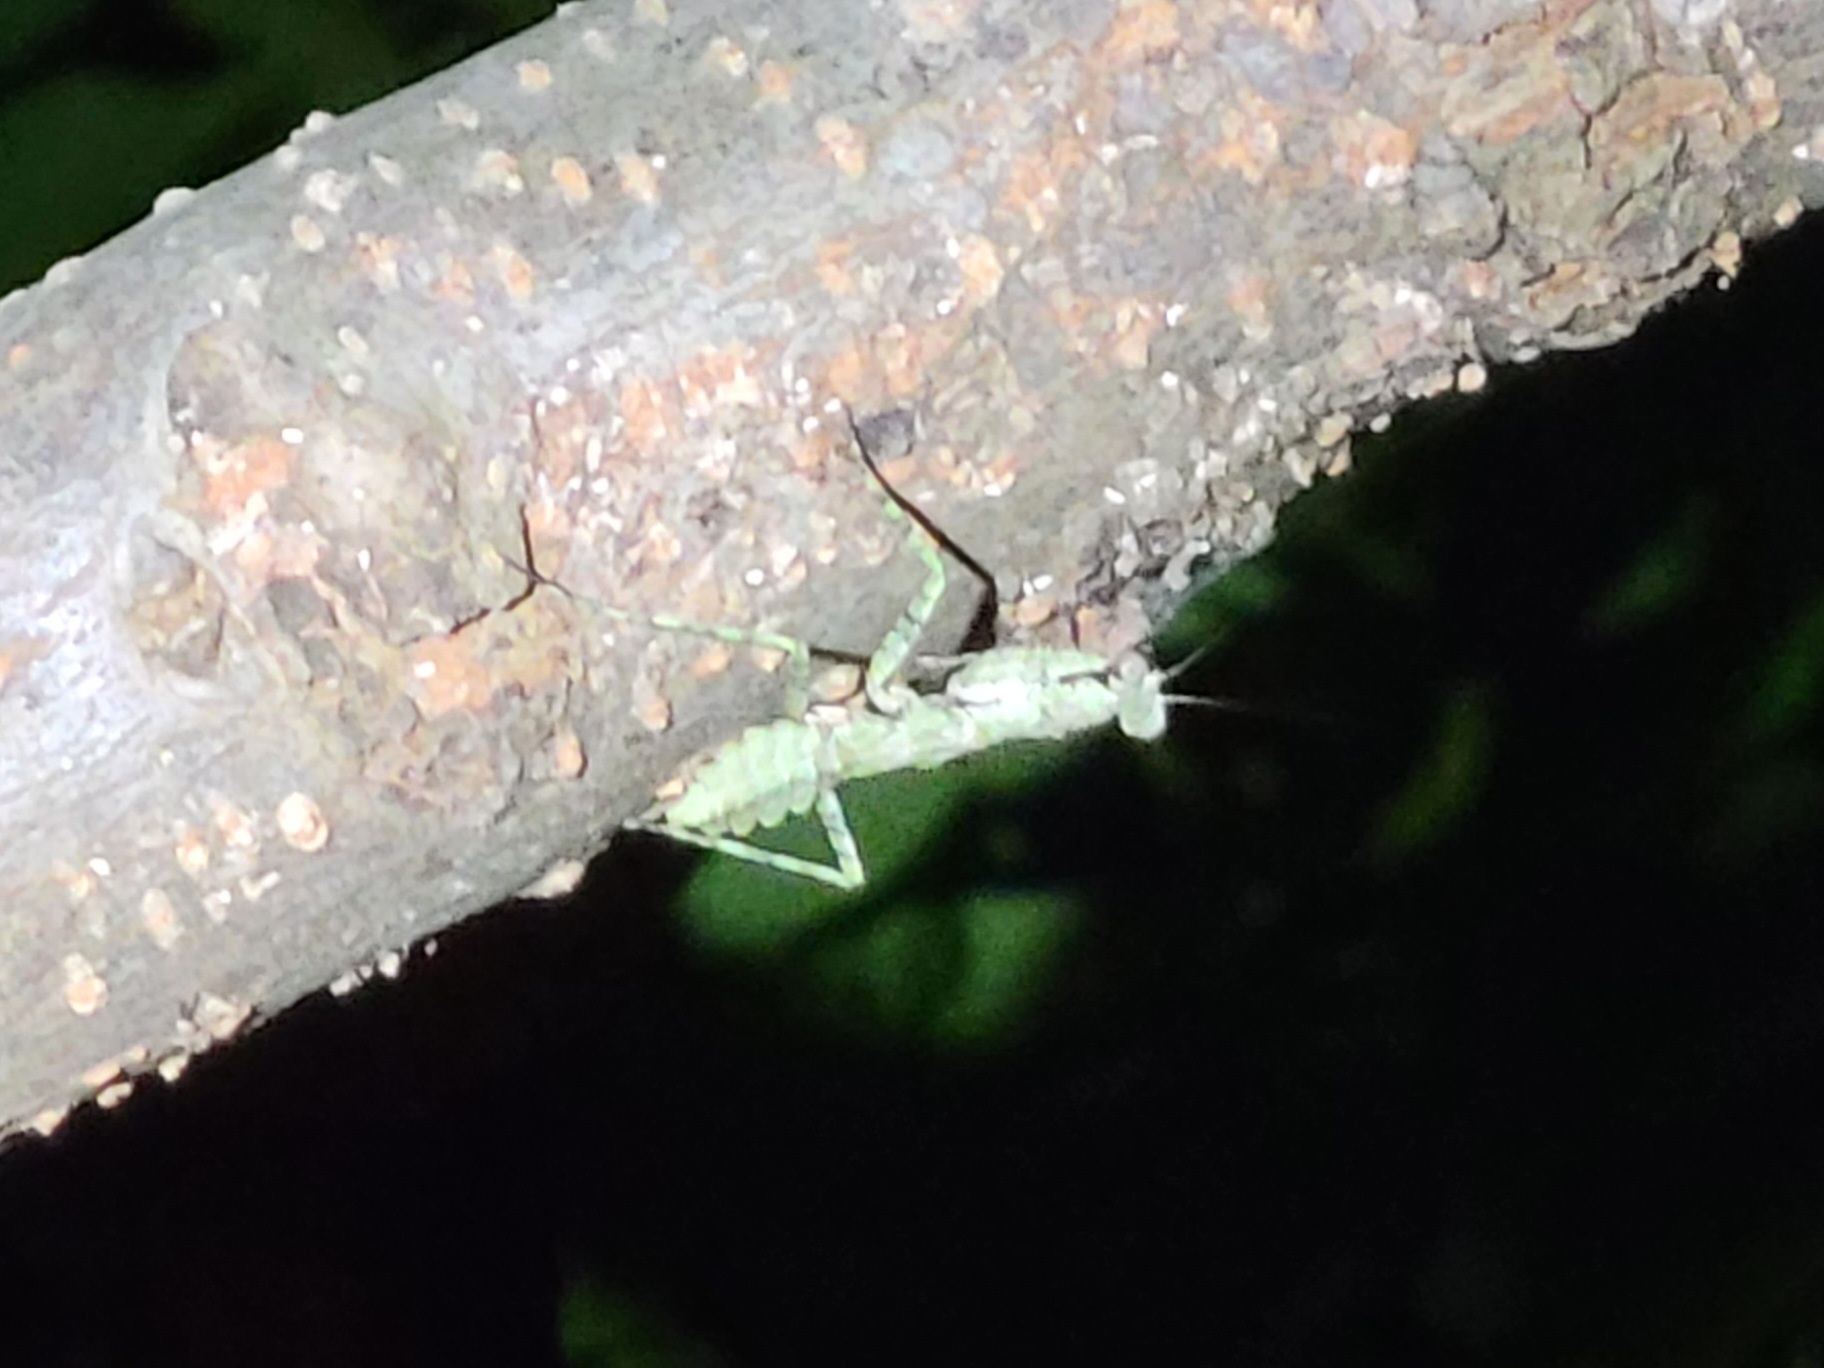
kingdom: Animalia
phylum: Arthropoda
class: Insecta
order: Mantodea
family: Epaphroditidae
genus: Gonatista
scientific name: Gonatista grisea
